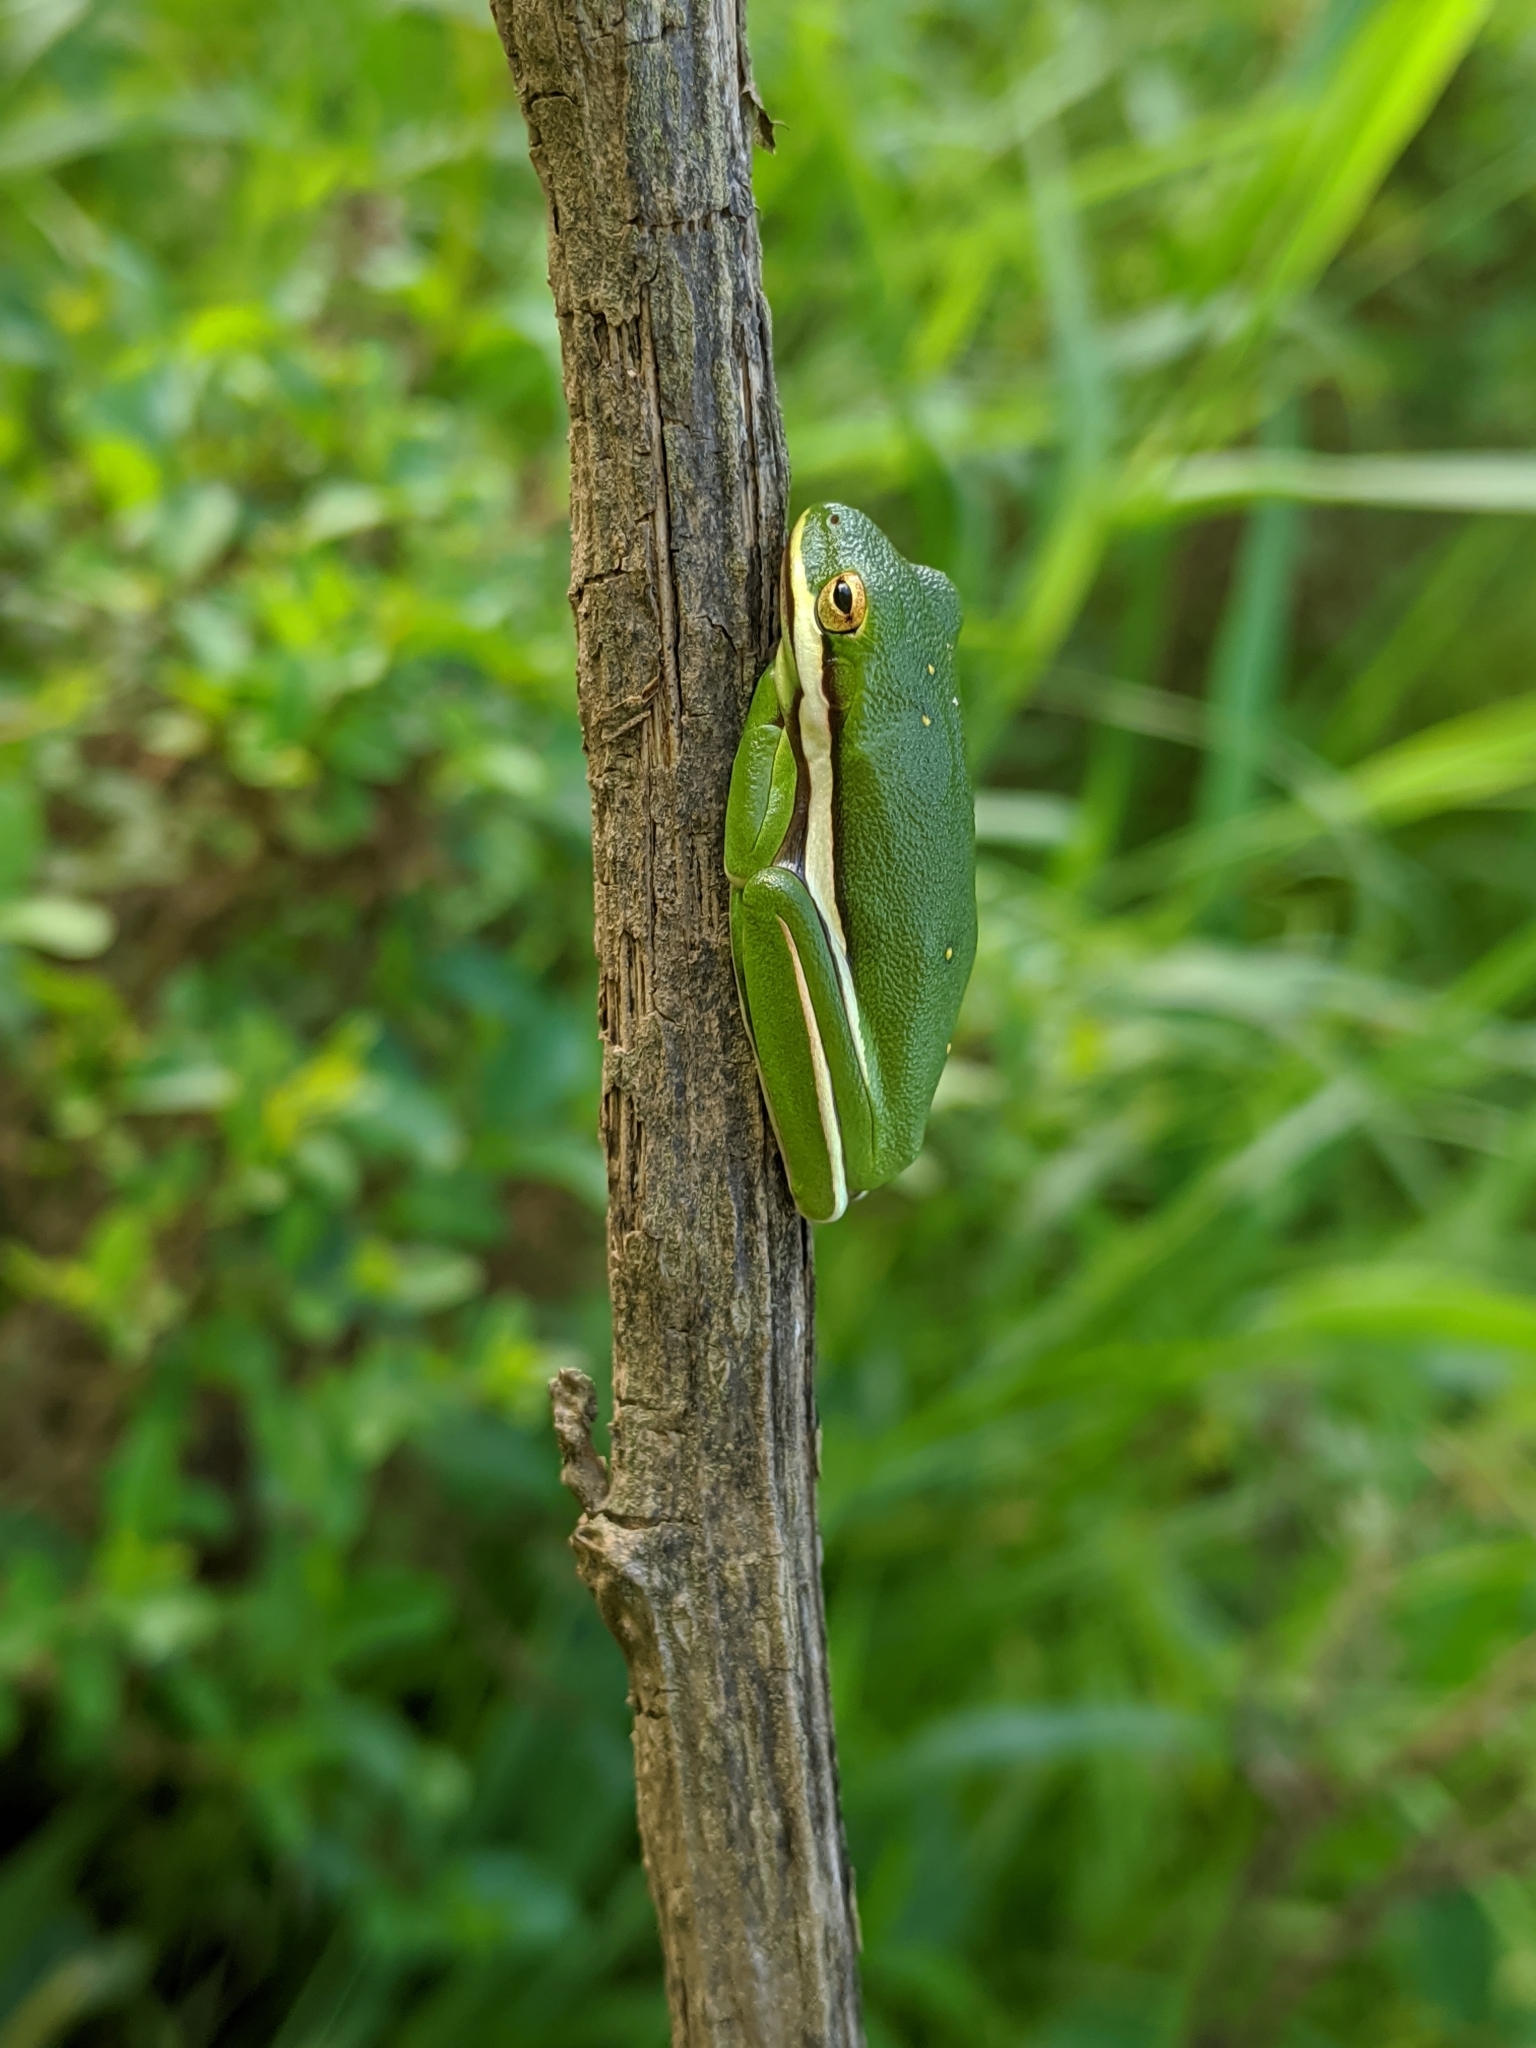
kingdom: Animalia
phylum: Chordata
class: Amphibia
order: Anura
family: Hylidae
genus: Dryophytes
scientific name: Dryophytes cinereus
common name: Green treefrog
